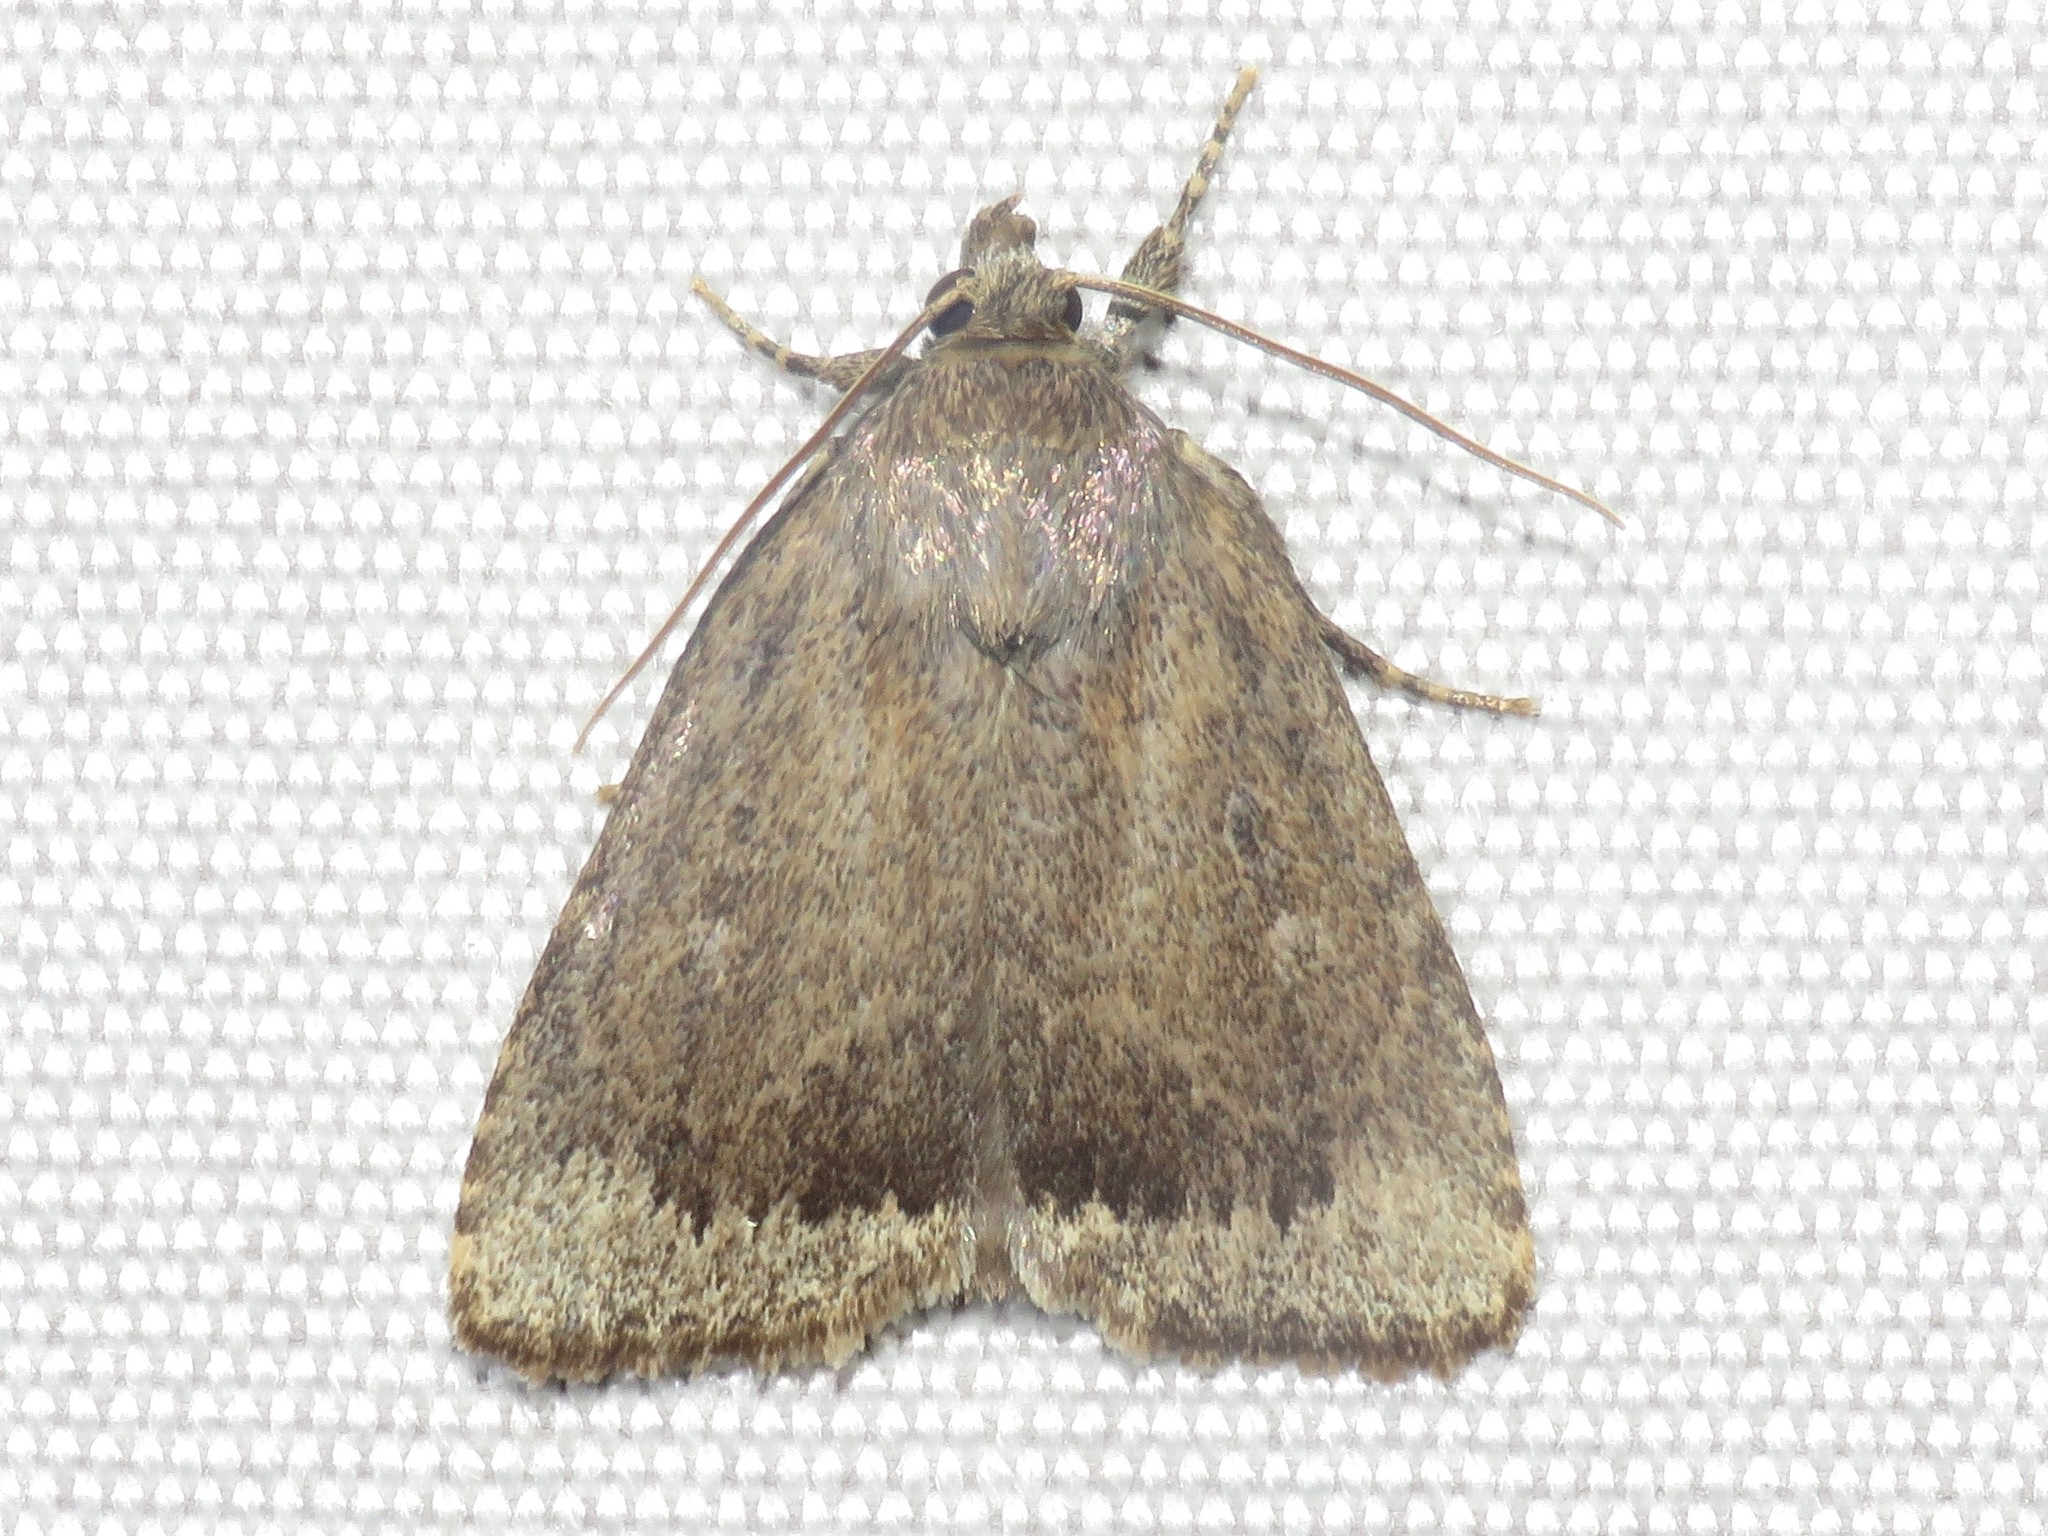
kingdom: Animalia
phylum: Arthropoda
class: Insecta
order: Lepidoptera
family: Noctuidae
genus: Amphipyra
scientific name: Amphipyra glabella
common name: Smooth amphipyra moth
